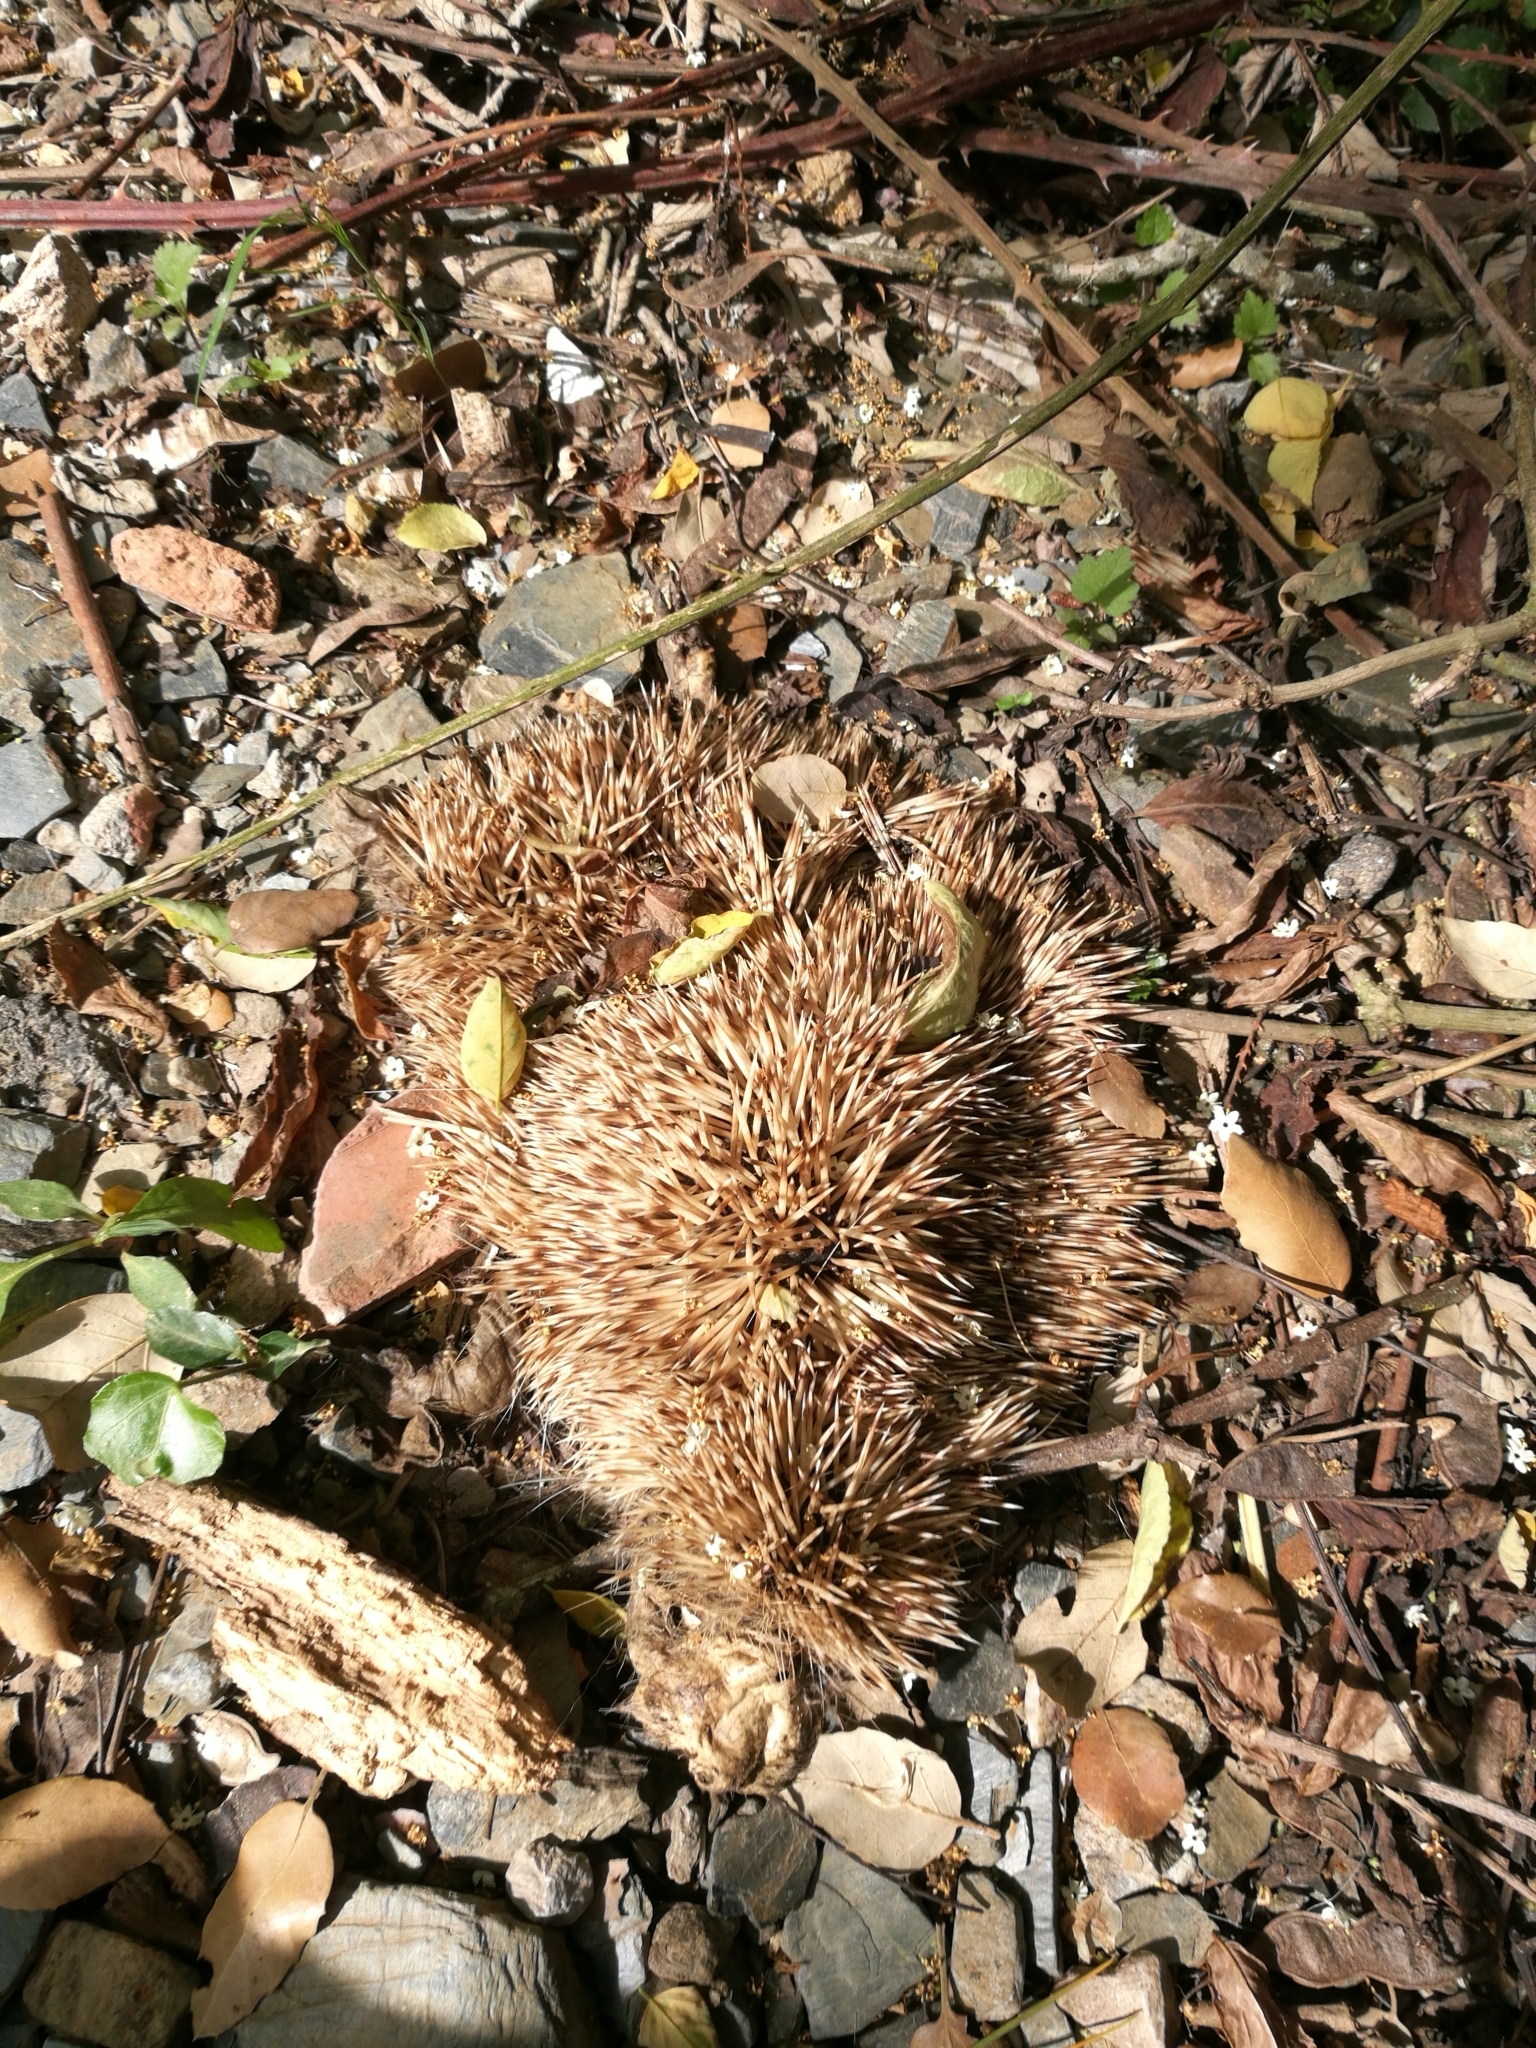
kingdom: Animalia
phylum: Chordata
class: Mammalia
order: Erinaceomorpha
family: Erinaceidae
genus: Erinaceus
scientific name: Erinaceus europaeus
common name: West european hedgehog
